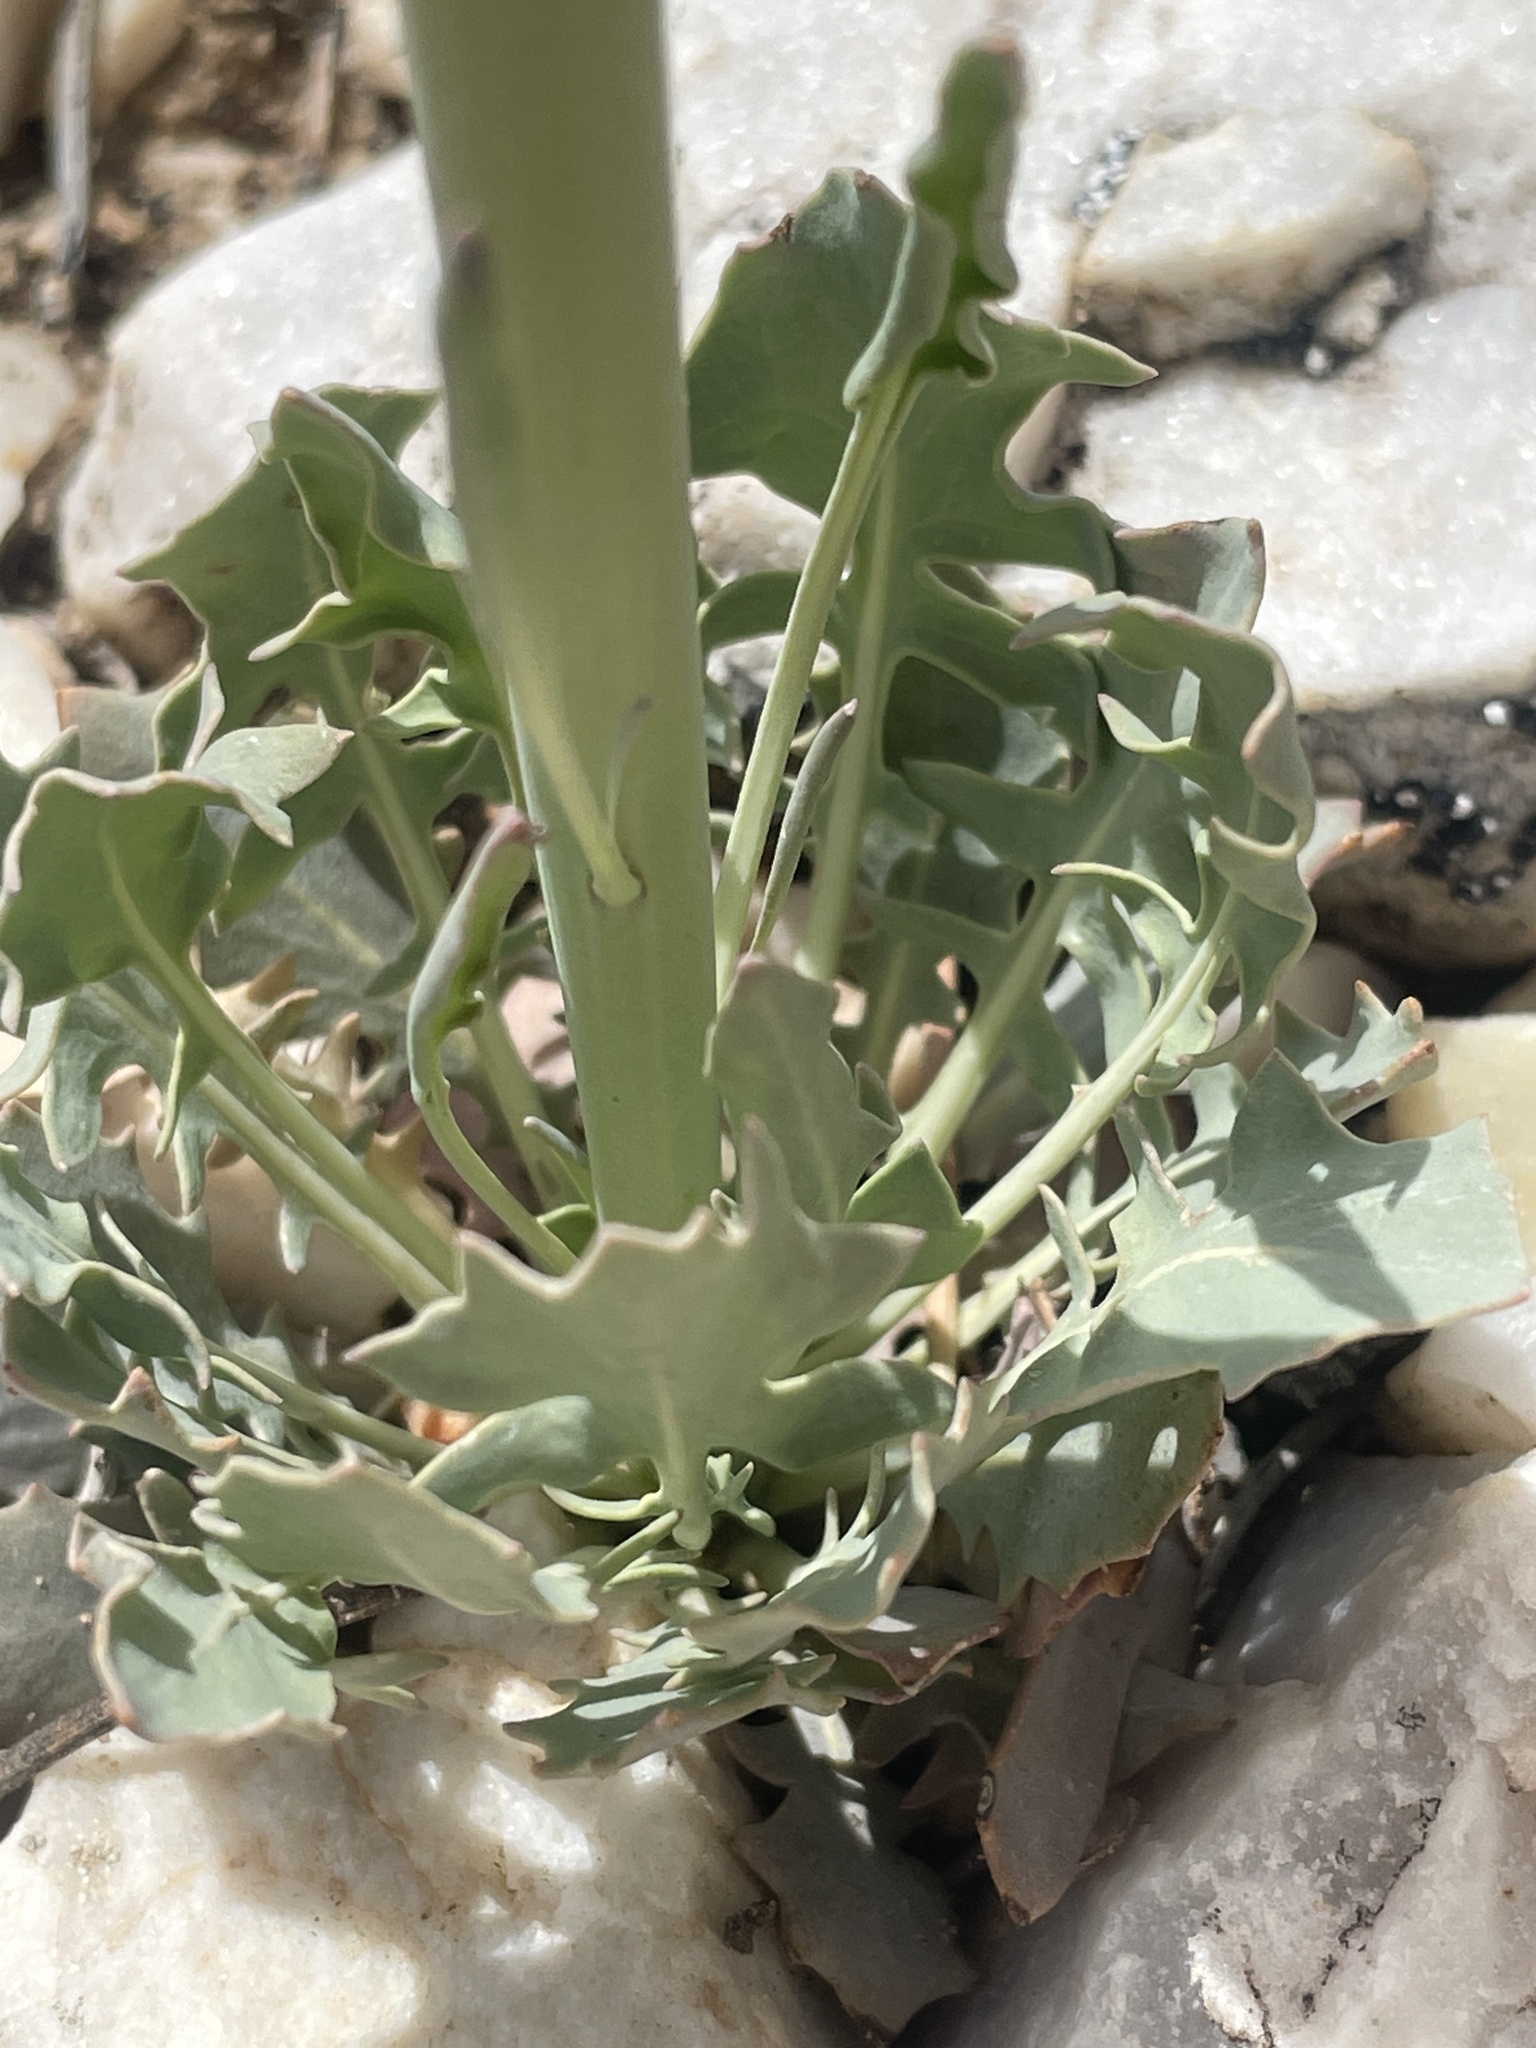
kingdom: Plantae
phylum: Tracheophyta
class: Magnoliopsida
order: Brassicales
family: Brassicaceae
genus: Streptanthus
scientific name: Streptanthus crassicaulis
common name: Thick-stem wild cabbage
